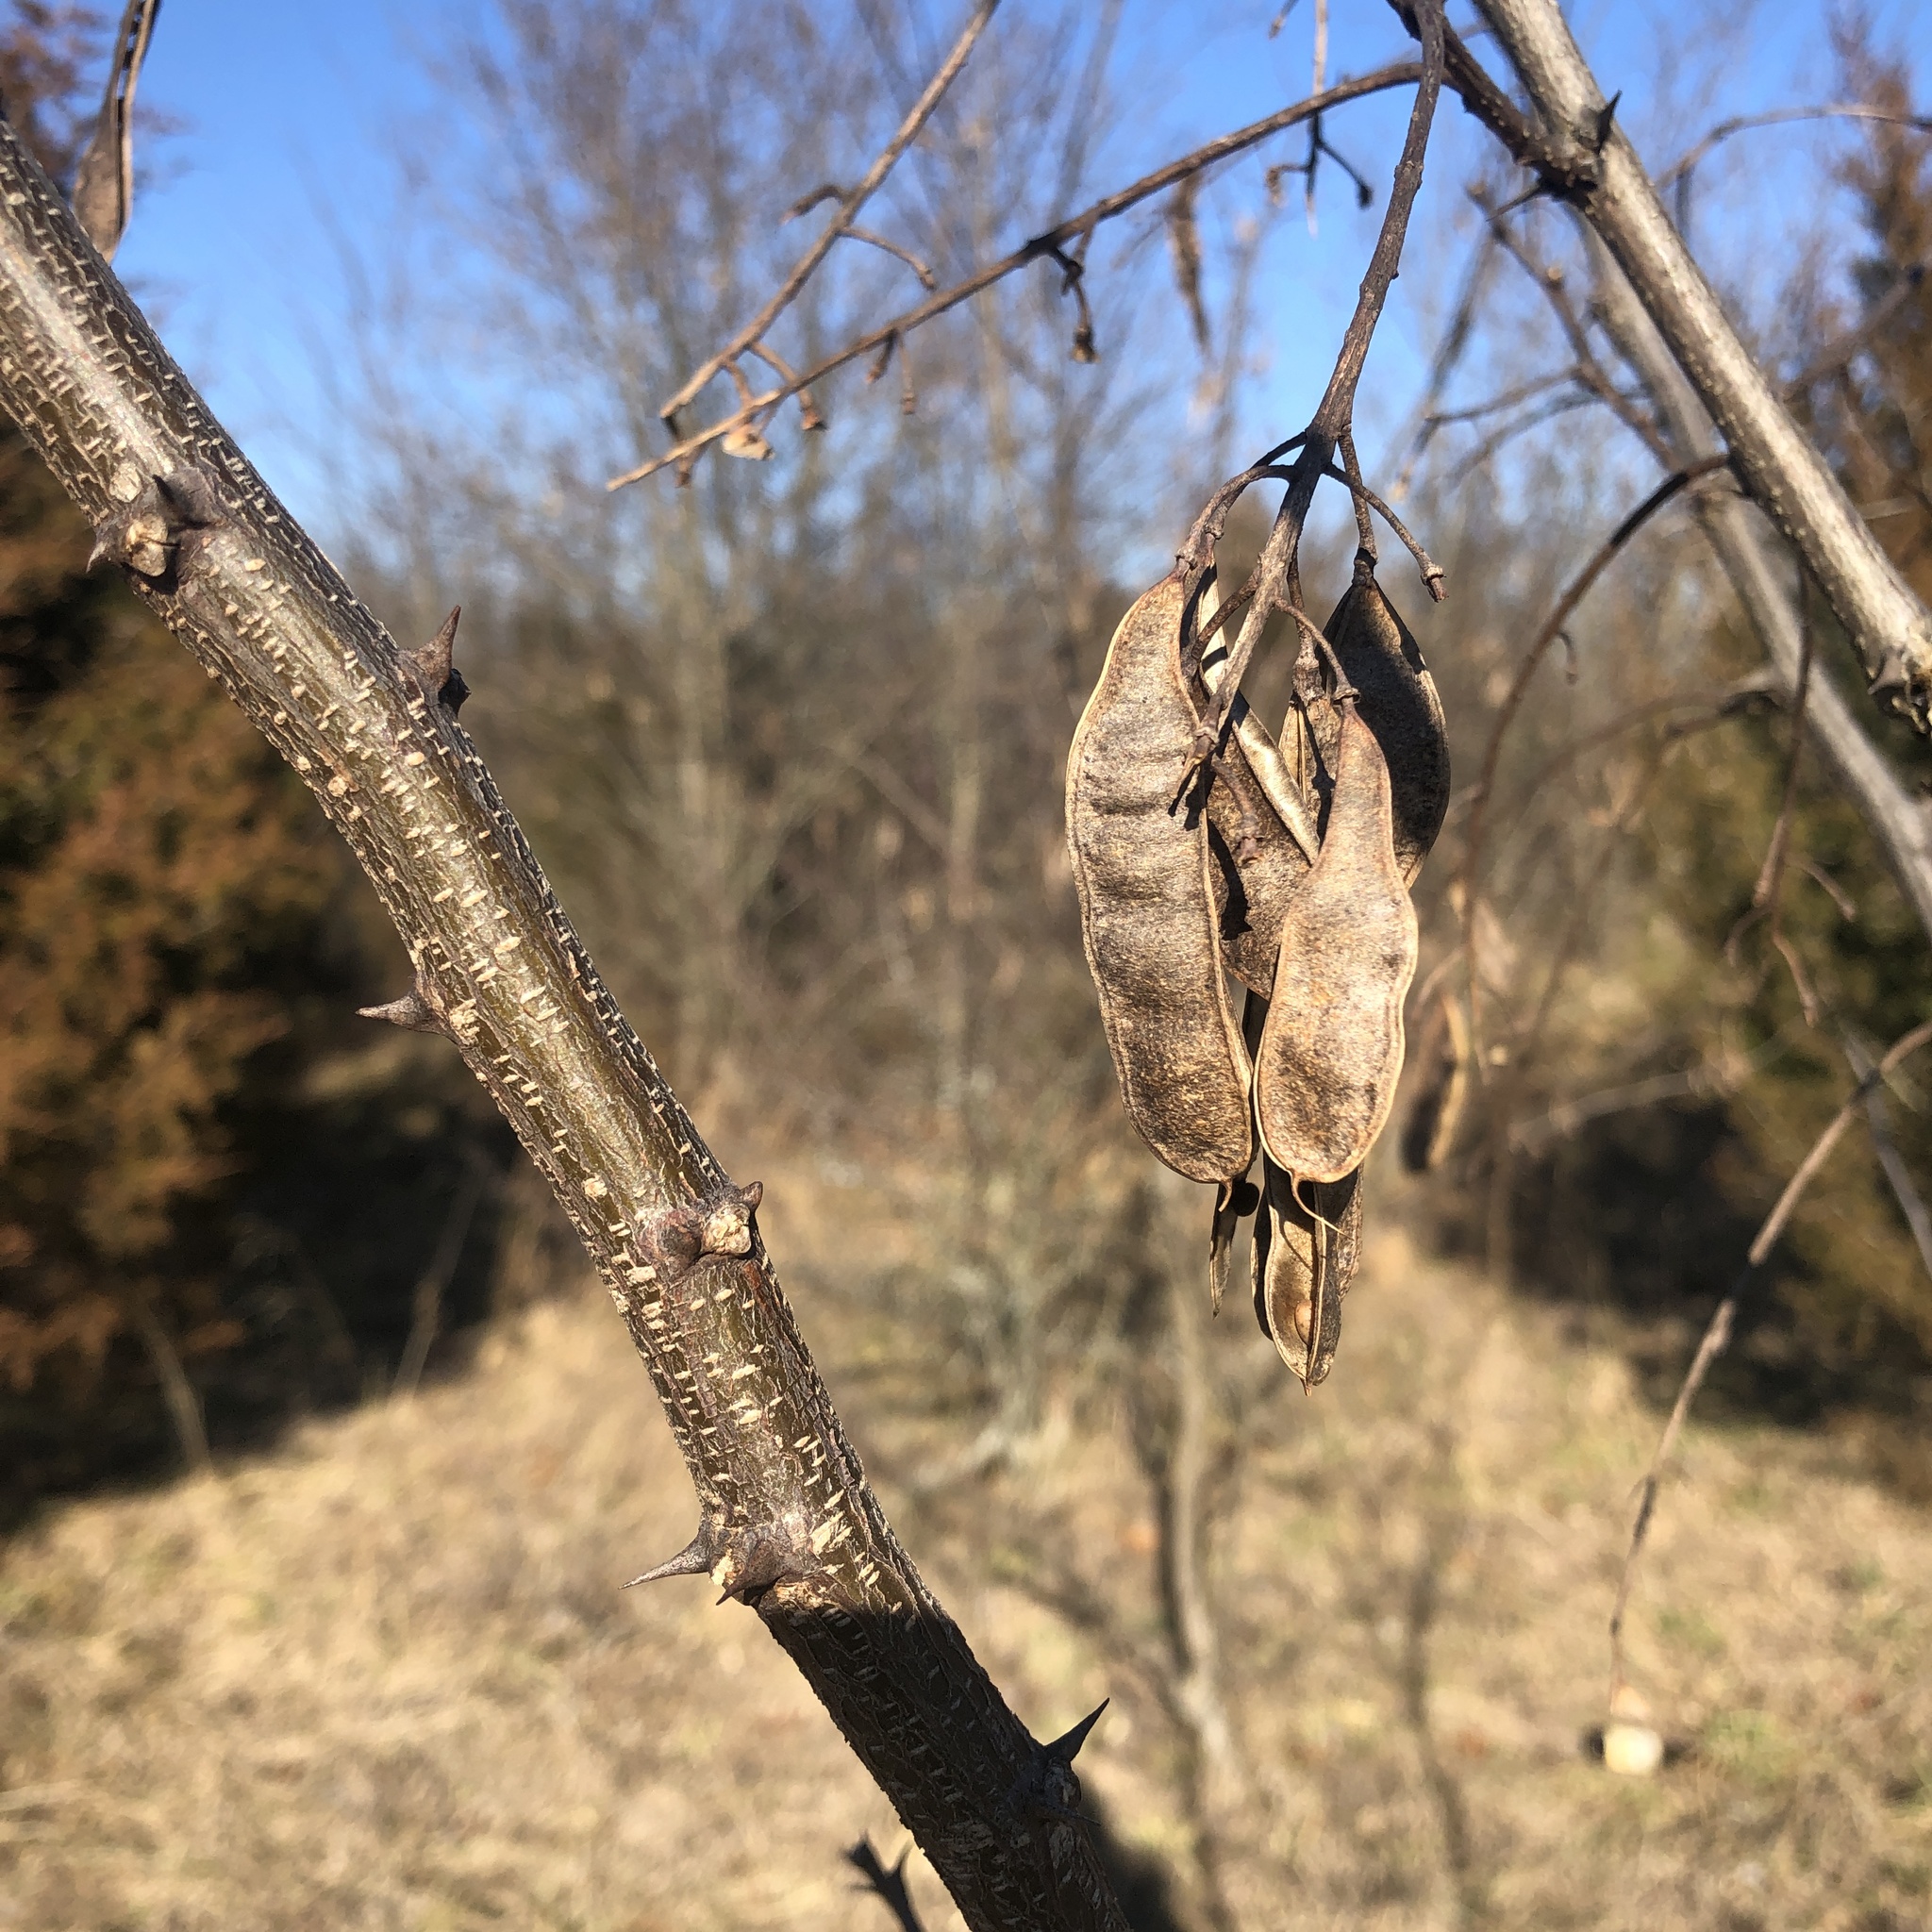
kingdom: Plantae
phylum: Tracheophyta
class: Magnoliopsida
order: Fabales
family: Fabaceae
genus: Robinia
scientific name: Robinia pseudoacacia
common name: Black locust
